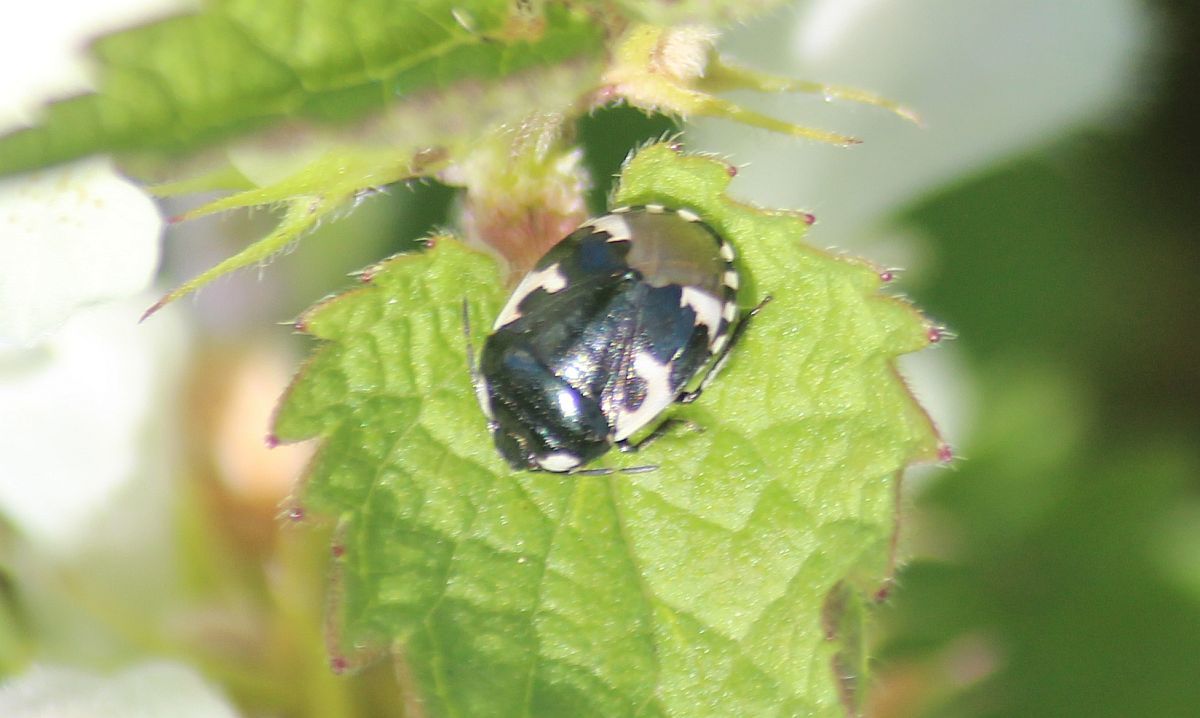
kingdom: Animalia
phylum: Arthropoda
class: Insecta
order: Hemiptera
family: Cydnidae
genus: Tritomegas
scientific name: Tritomegas bicolor
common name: Pied shieldbug
